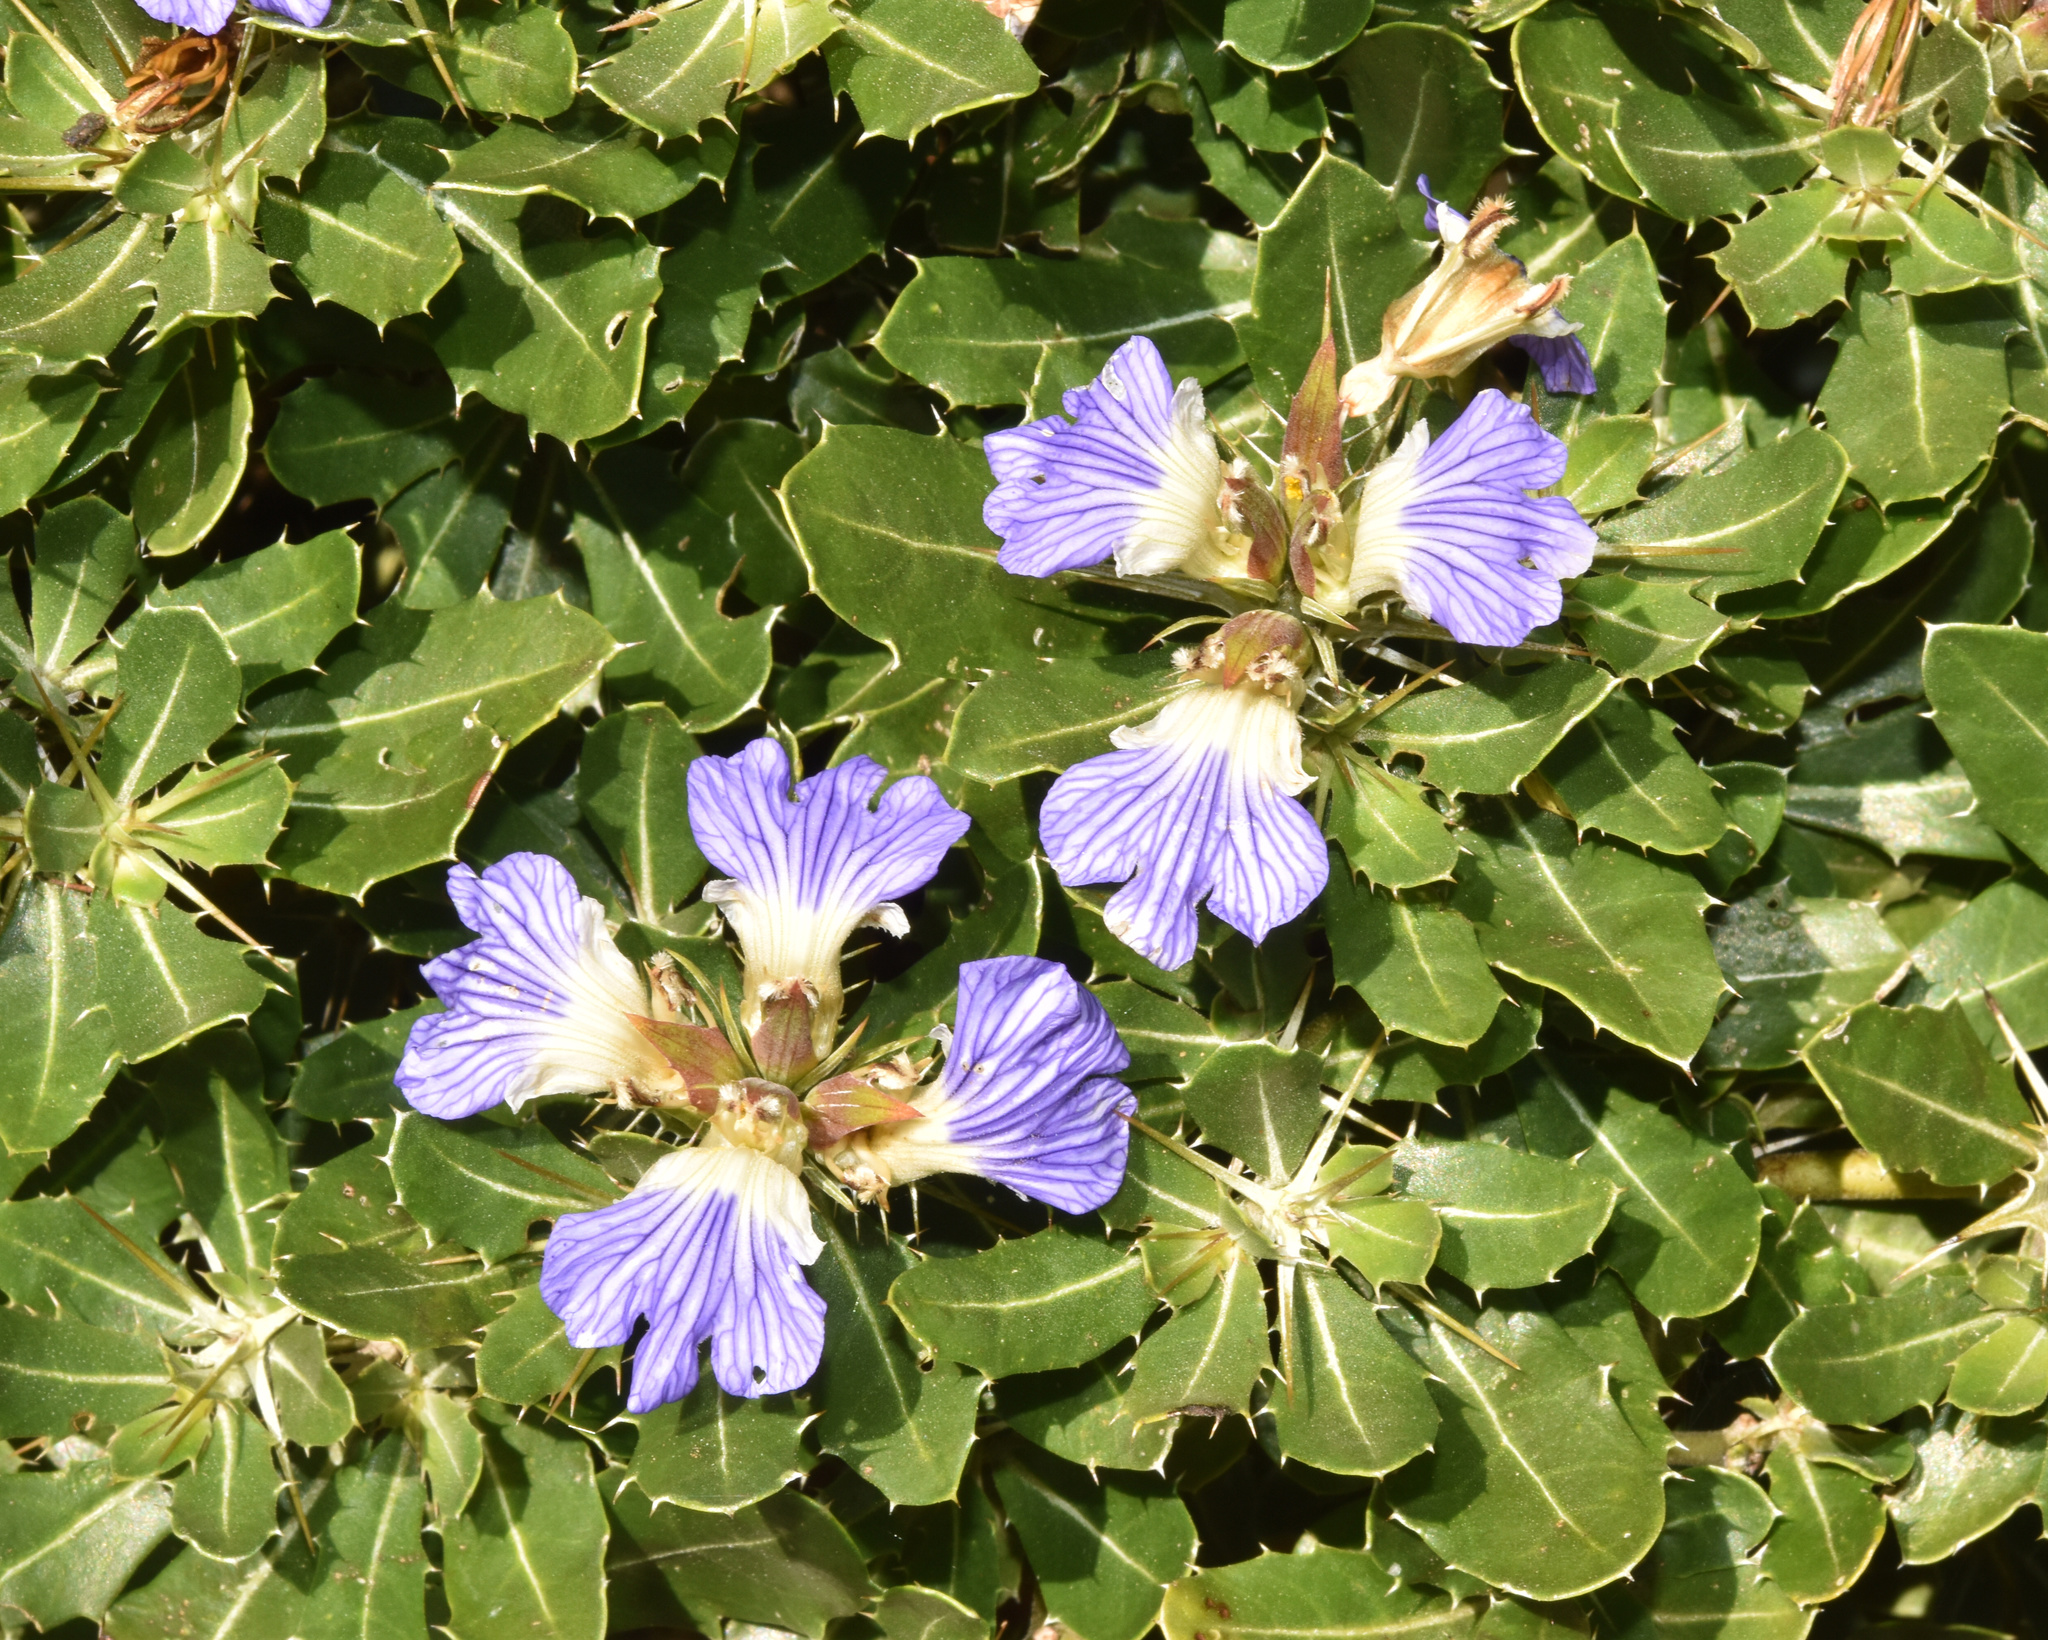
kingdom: Plantae
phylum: Tracheophyta
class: Magnoliopsida
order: Lamiales
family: Acanthaceae
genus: Blepharis
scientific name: Blepharis natalensis
